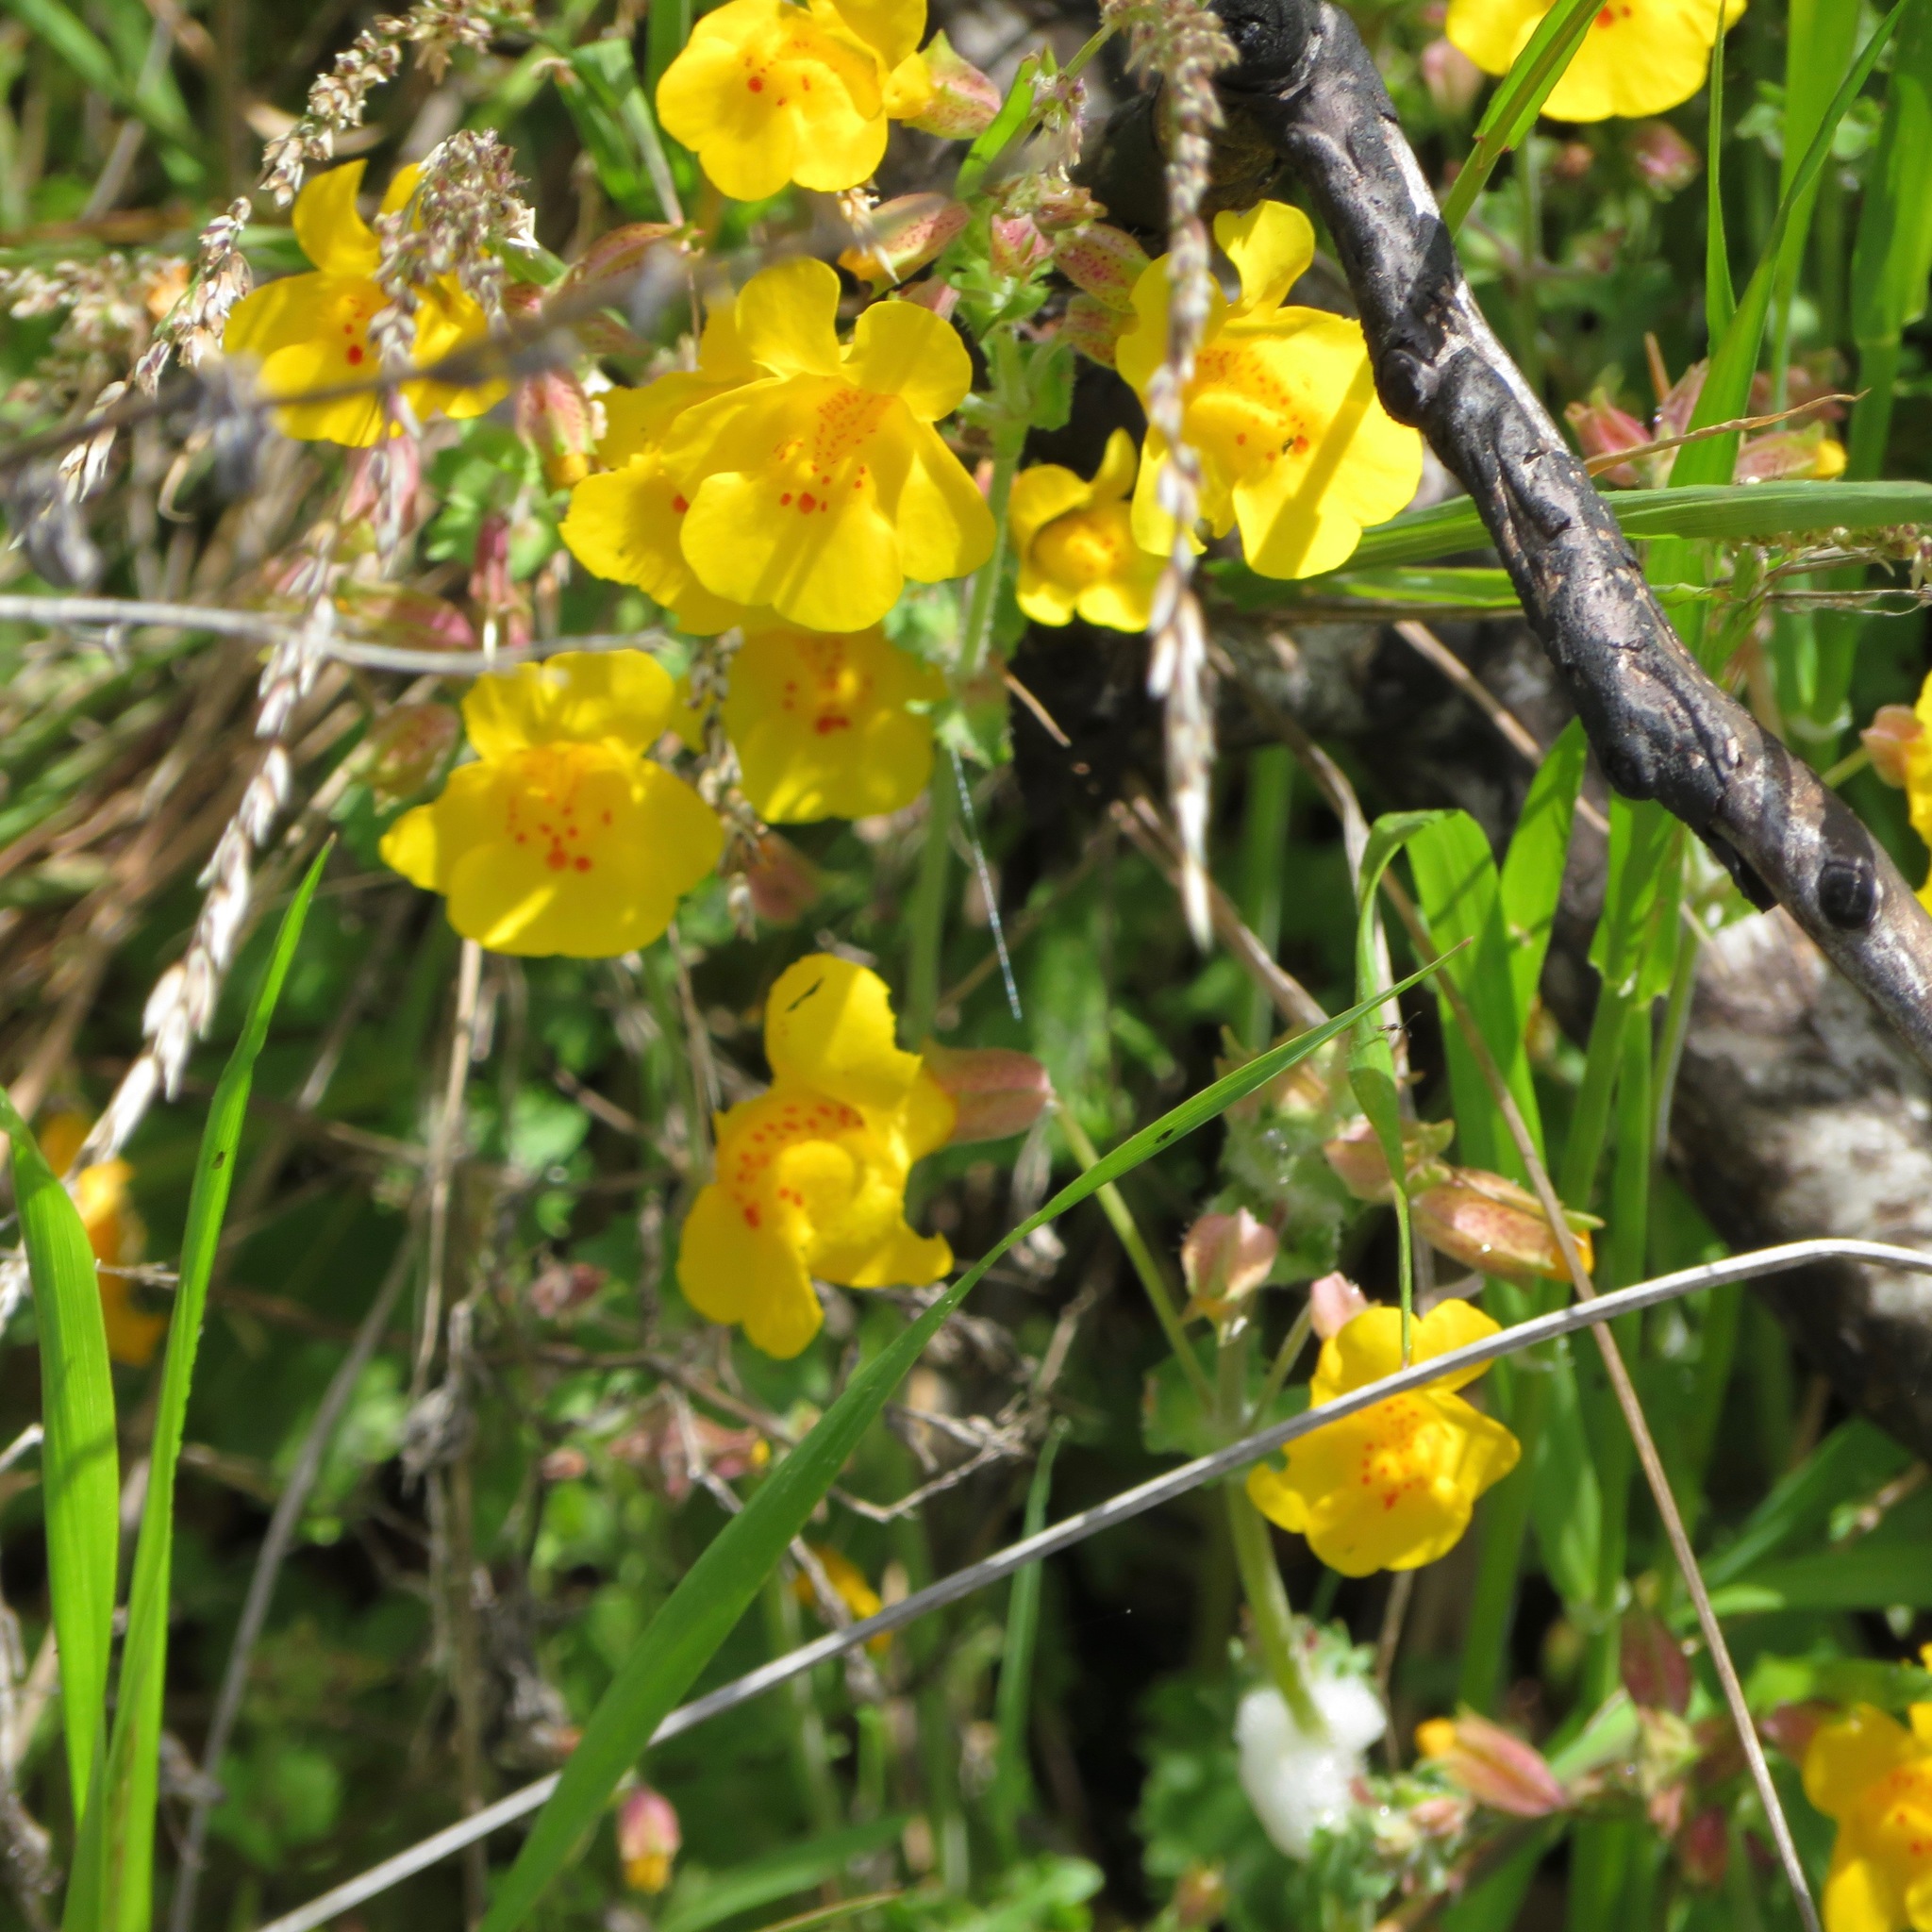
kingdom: Plantae
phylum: Tracheophyta
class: Magnoliopsida
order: Lamiales
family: Phrymaceae
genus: Erythranthe
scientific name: Erythranthe guttata
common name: Monkeyflower
